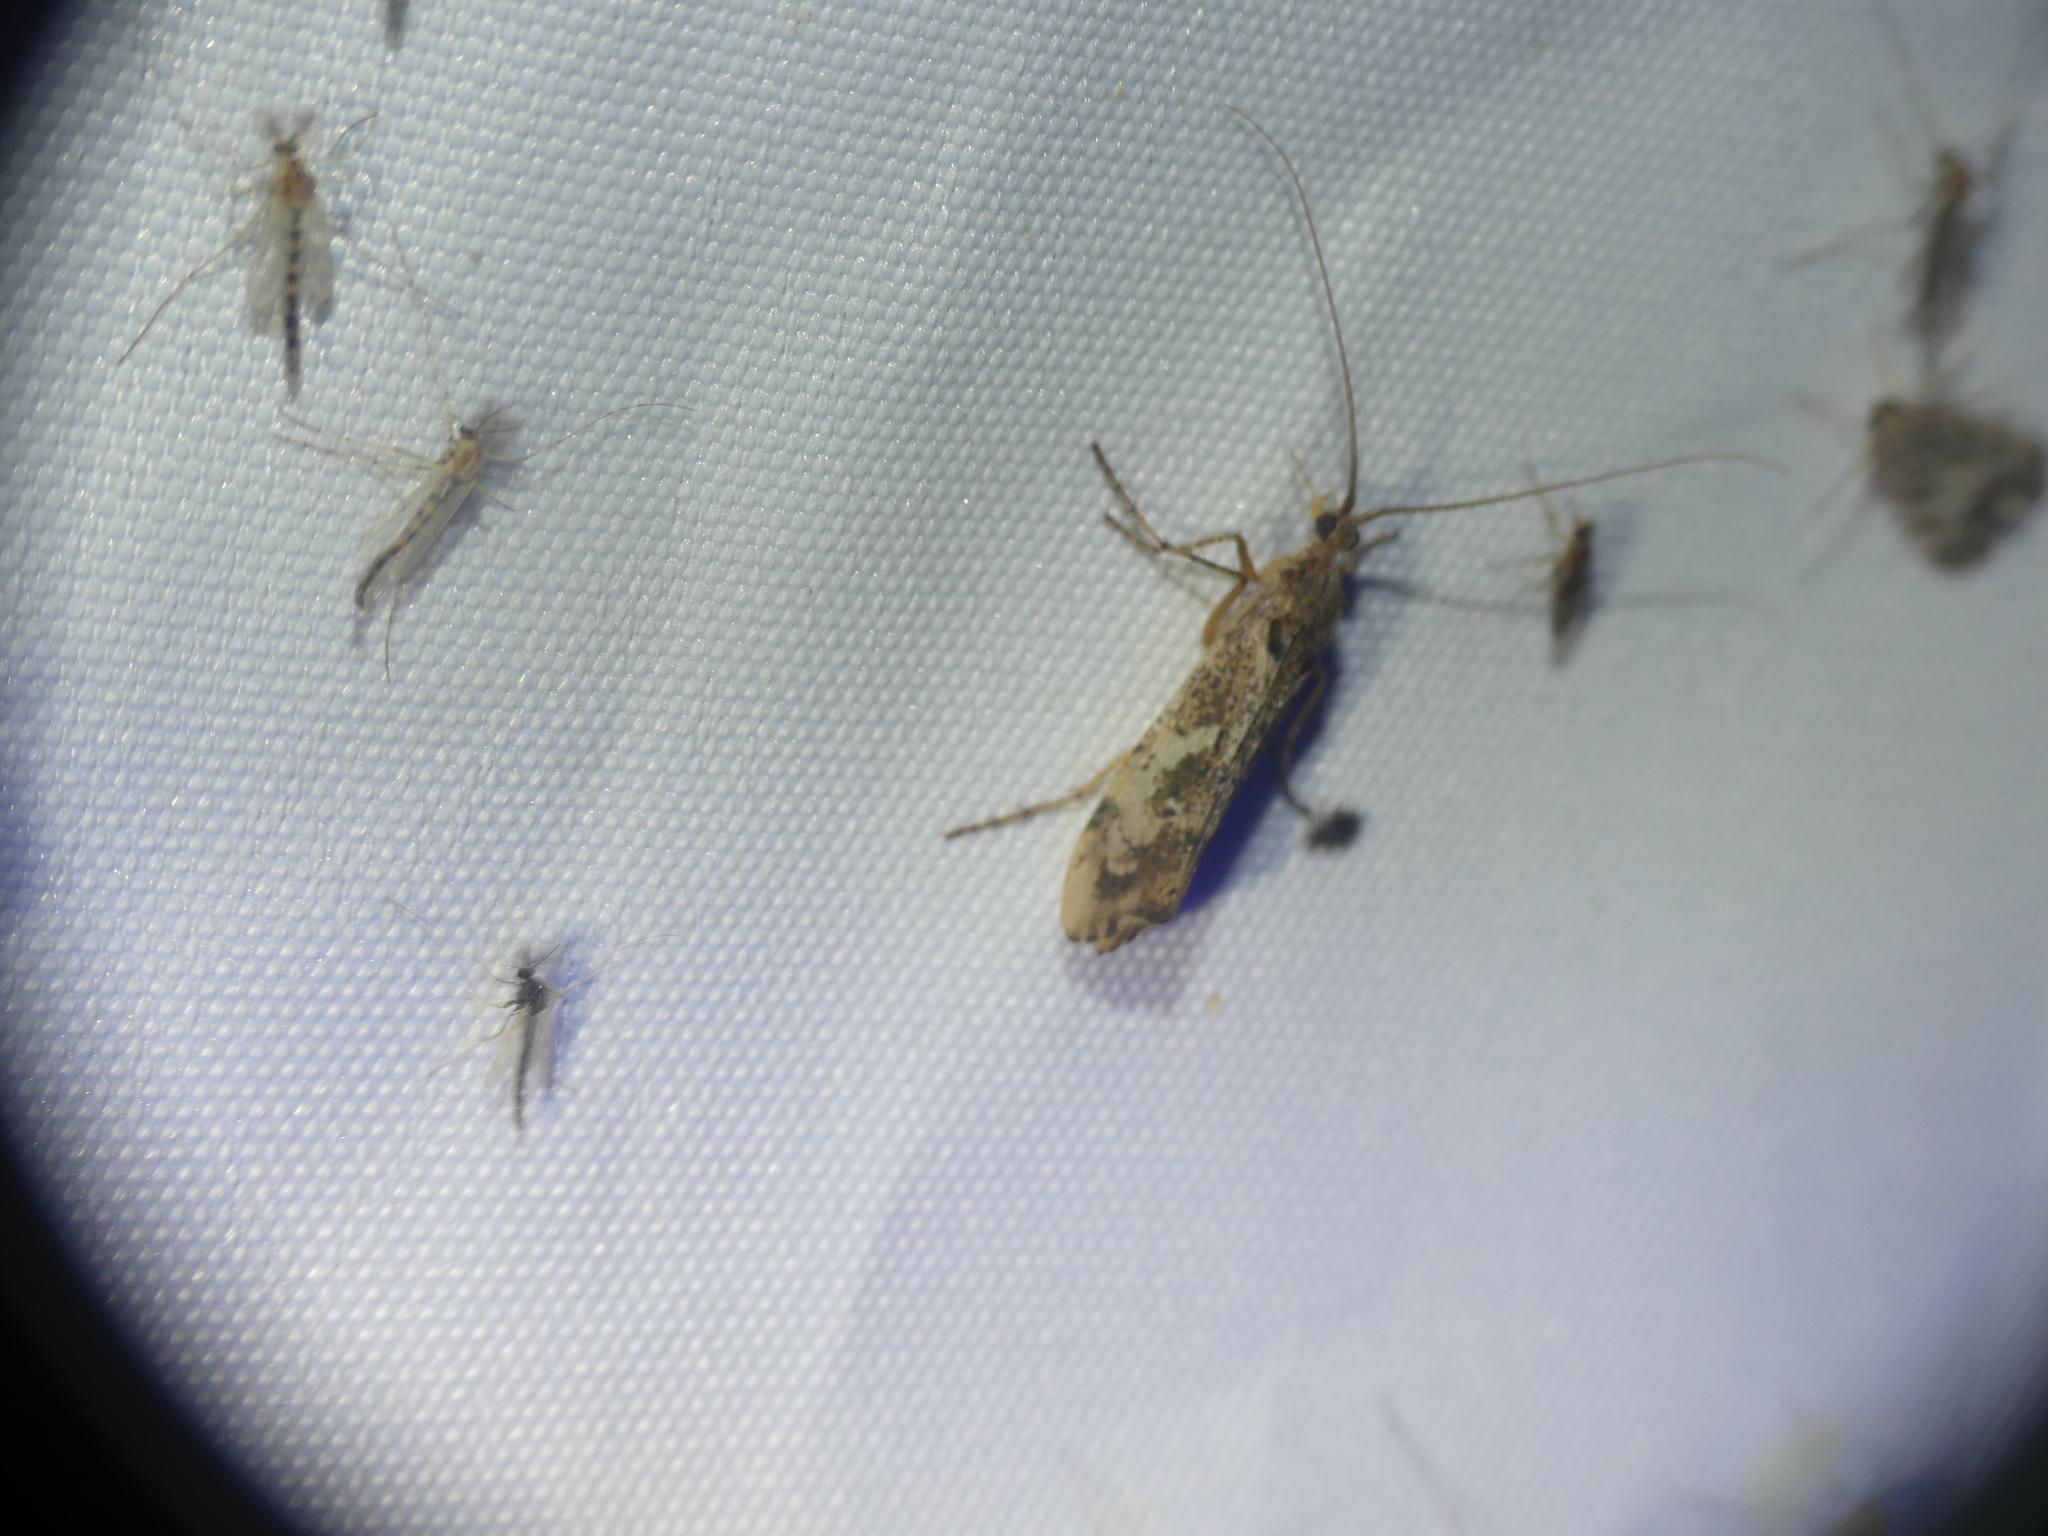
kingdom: Animalia
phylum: Arthropoda
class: Insecta
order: Trichoptera
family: Limnephilidae
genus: Glyphotaelius
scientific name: Glyphotaelius pellucidus
